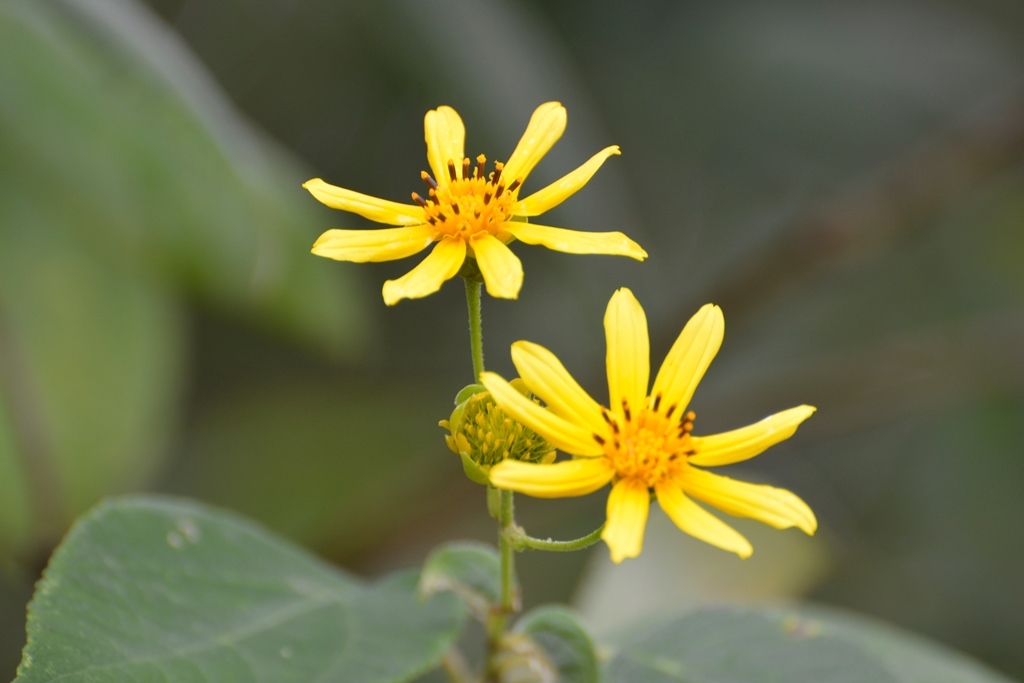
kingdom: Plantae
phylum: Tracheophyta
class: Magnoliopsida
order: Asterales
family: Asteraceae
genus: Lasianthaea
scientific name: Lasianthaea fruticosa
